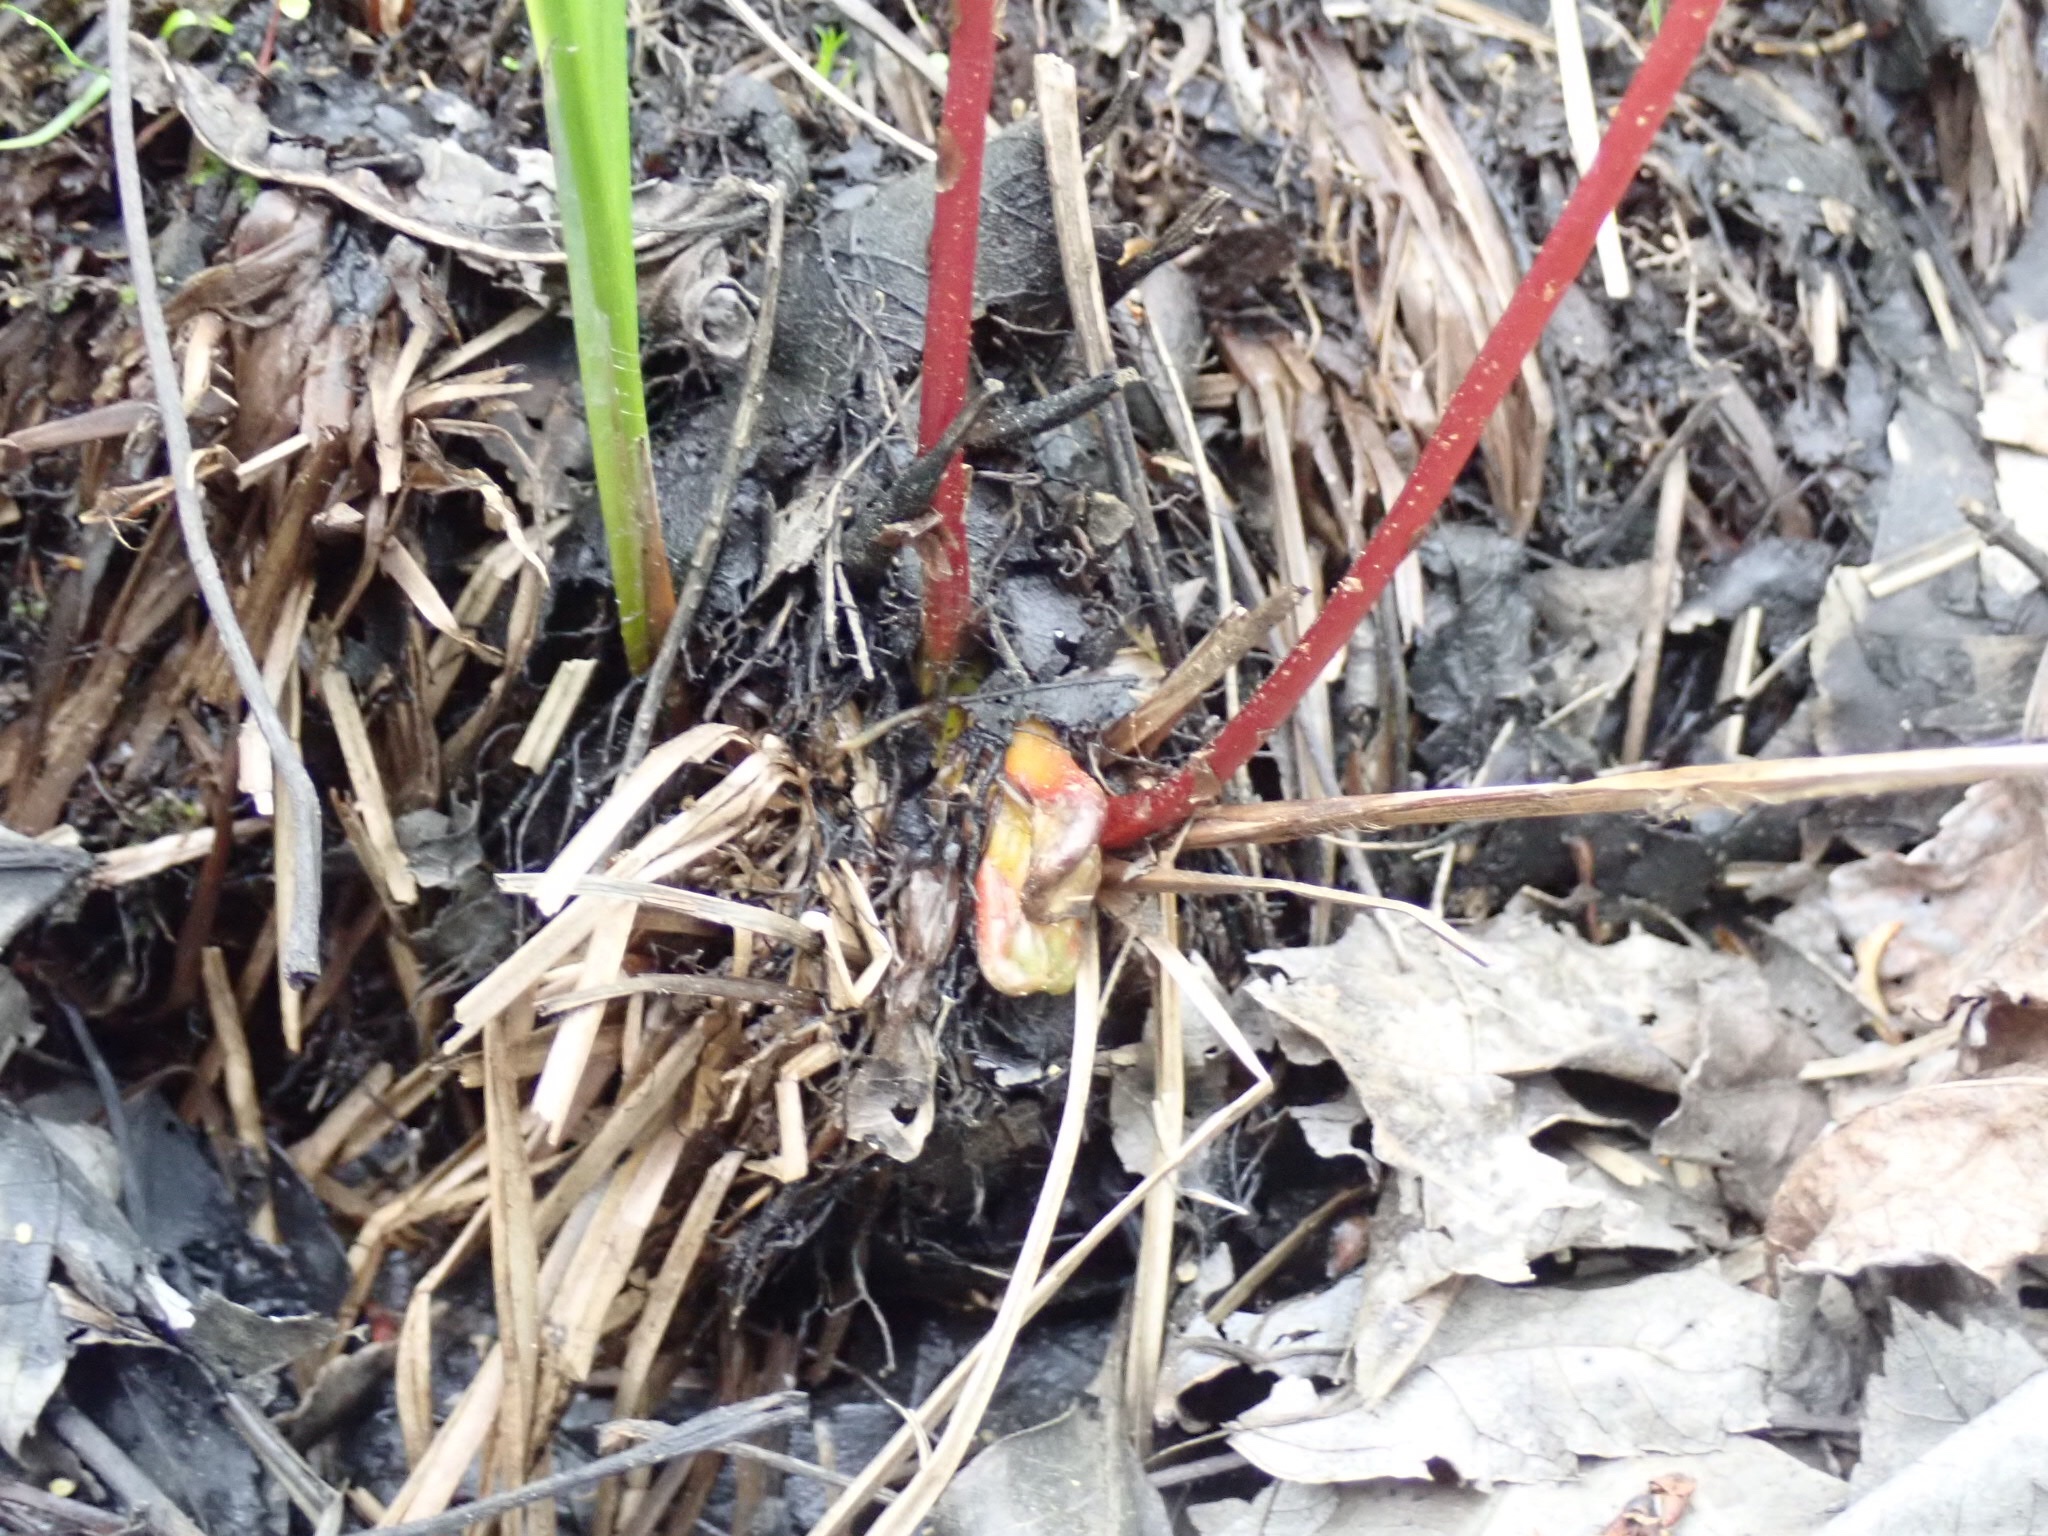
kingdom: Plantae
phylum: Tracheophyta
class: Polypodiopsida
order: Polypodiales
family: Onocleaceae
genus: Onoclea
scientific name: Onoclea sensibilis
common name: Sensitive fern
